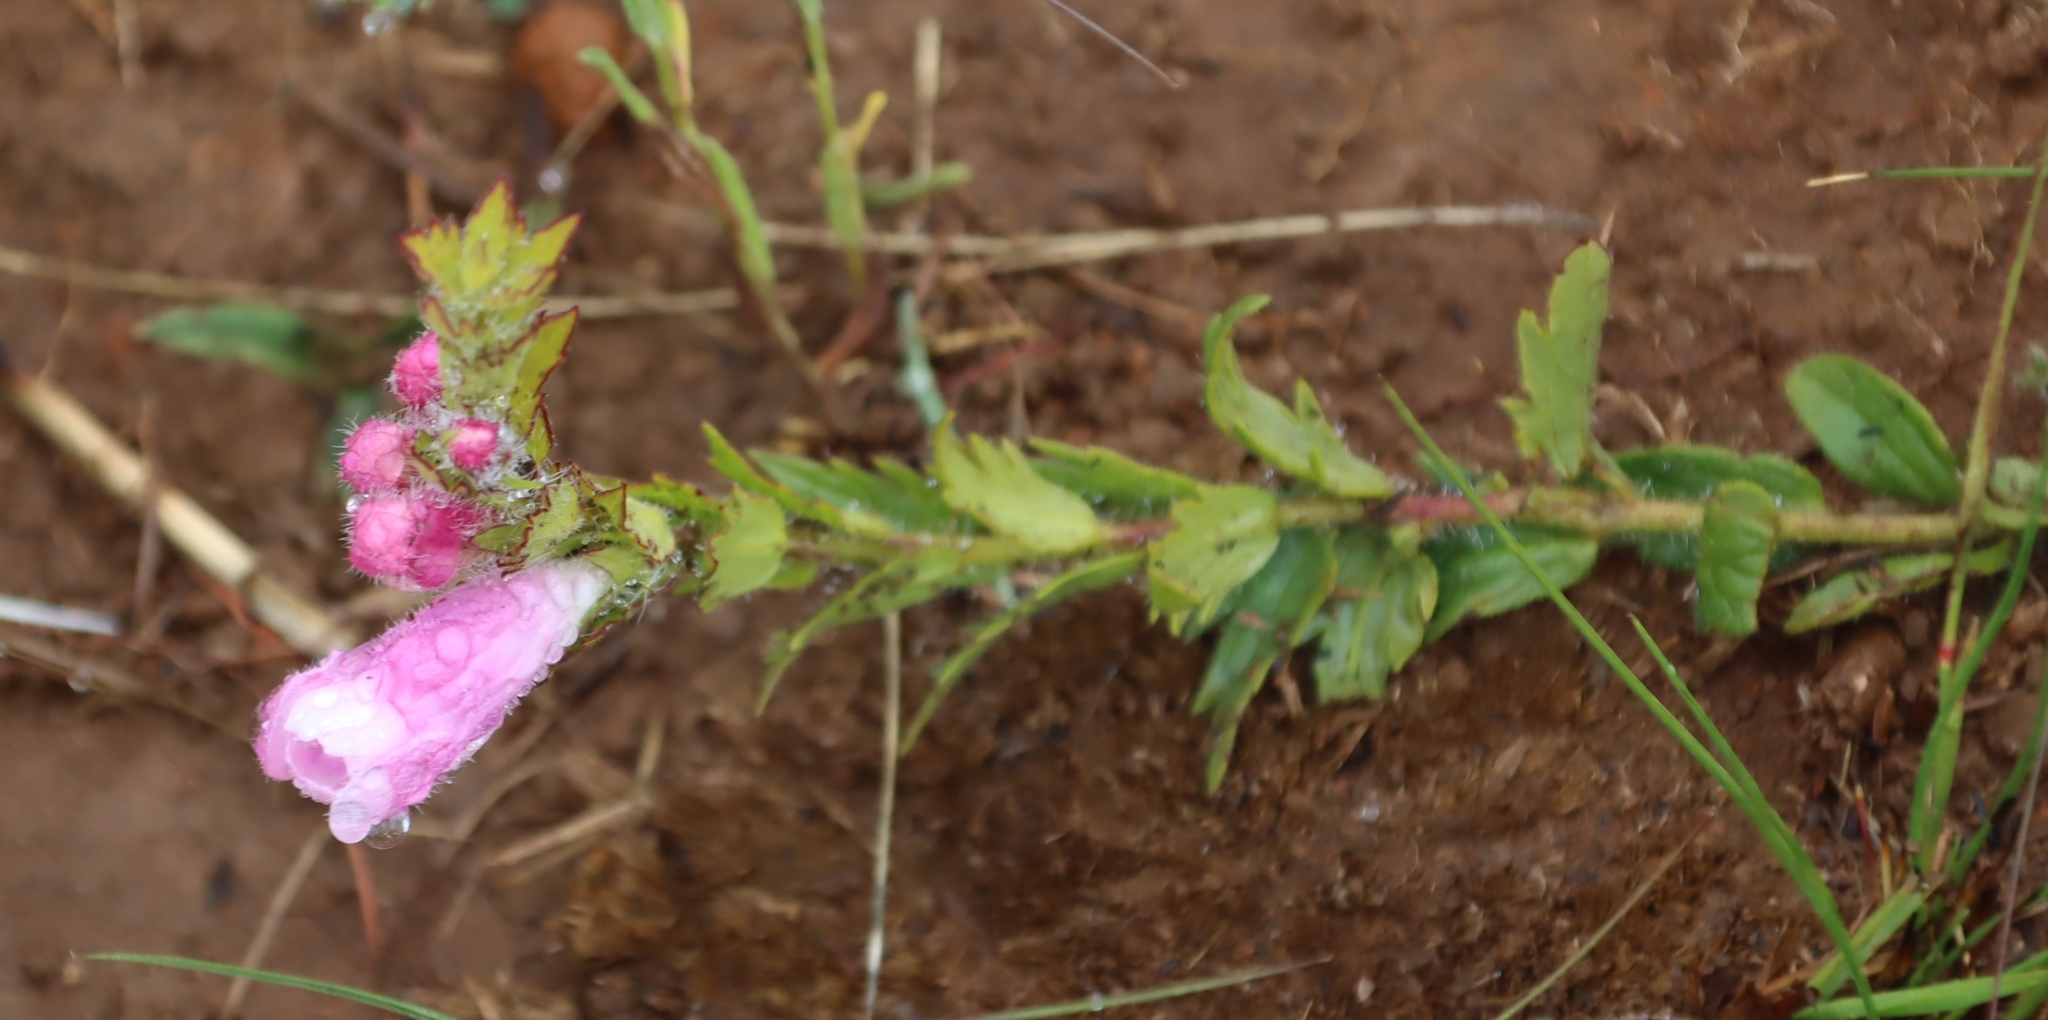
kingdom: Plantae
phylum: Tracheophyta
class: Magnoliopsida
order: Lamiales
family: Orobanchaceae
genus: Graderia
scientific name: Graderia scabra
